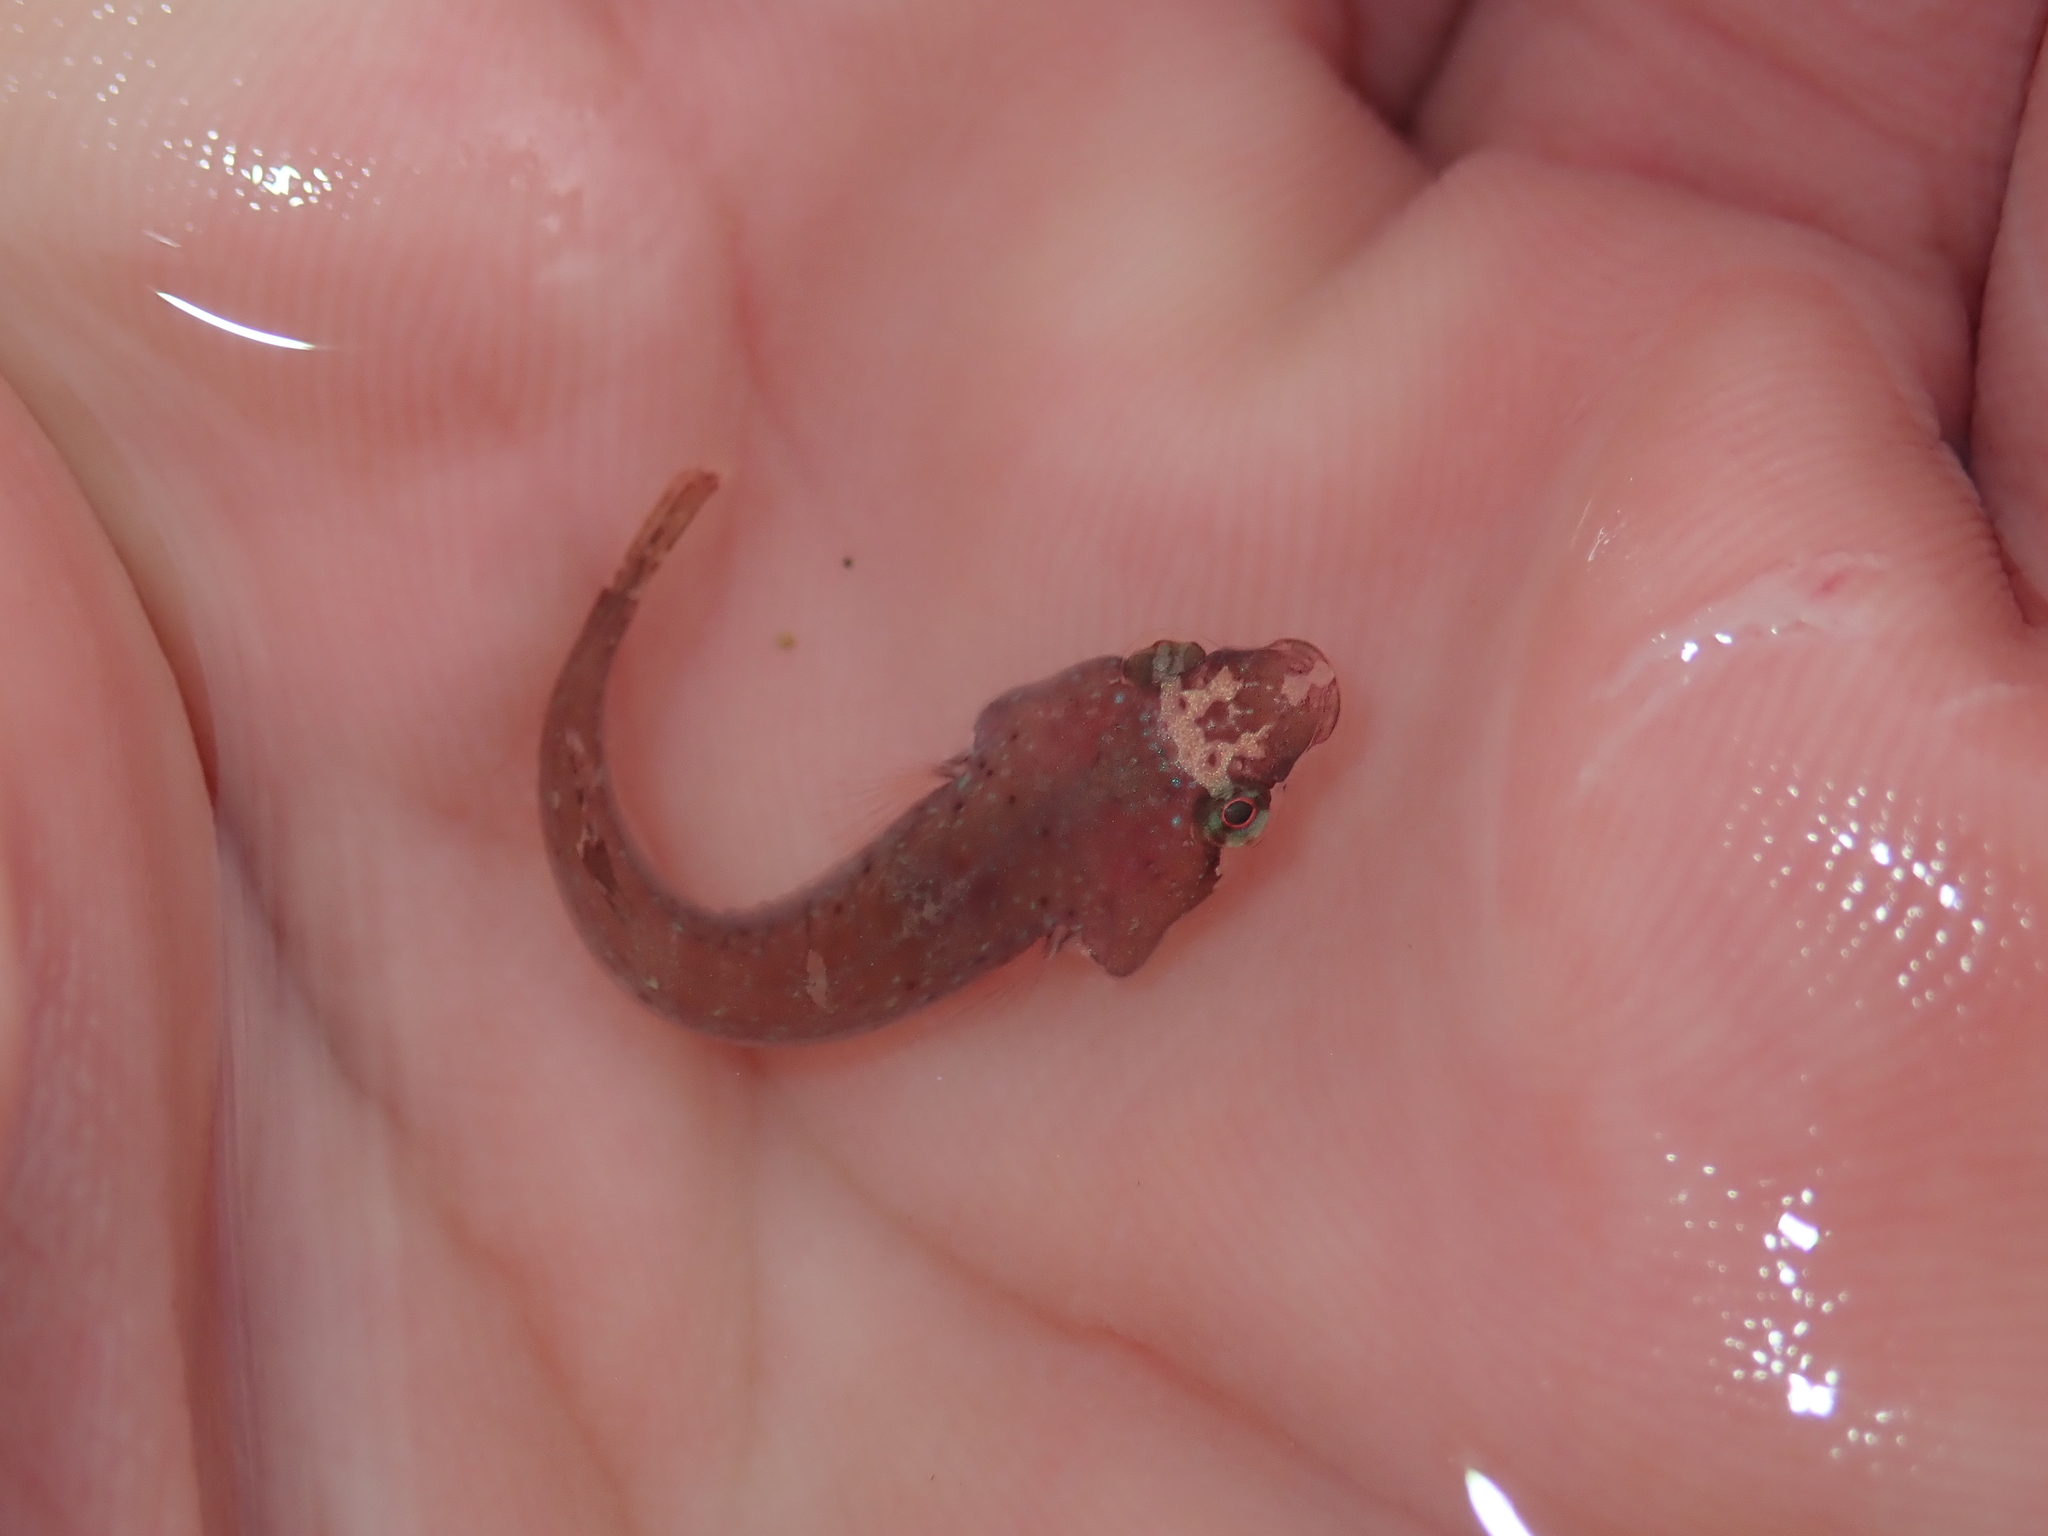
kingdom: Animalia
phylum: Chordata
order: Gobiesociformes
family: Gobiesocidae
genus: Apletodon
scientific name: Apletodon dentatus
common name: Small-headed clingfish
